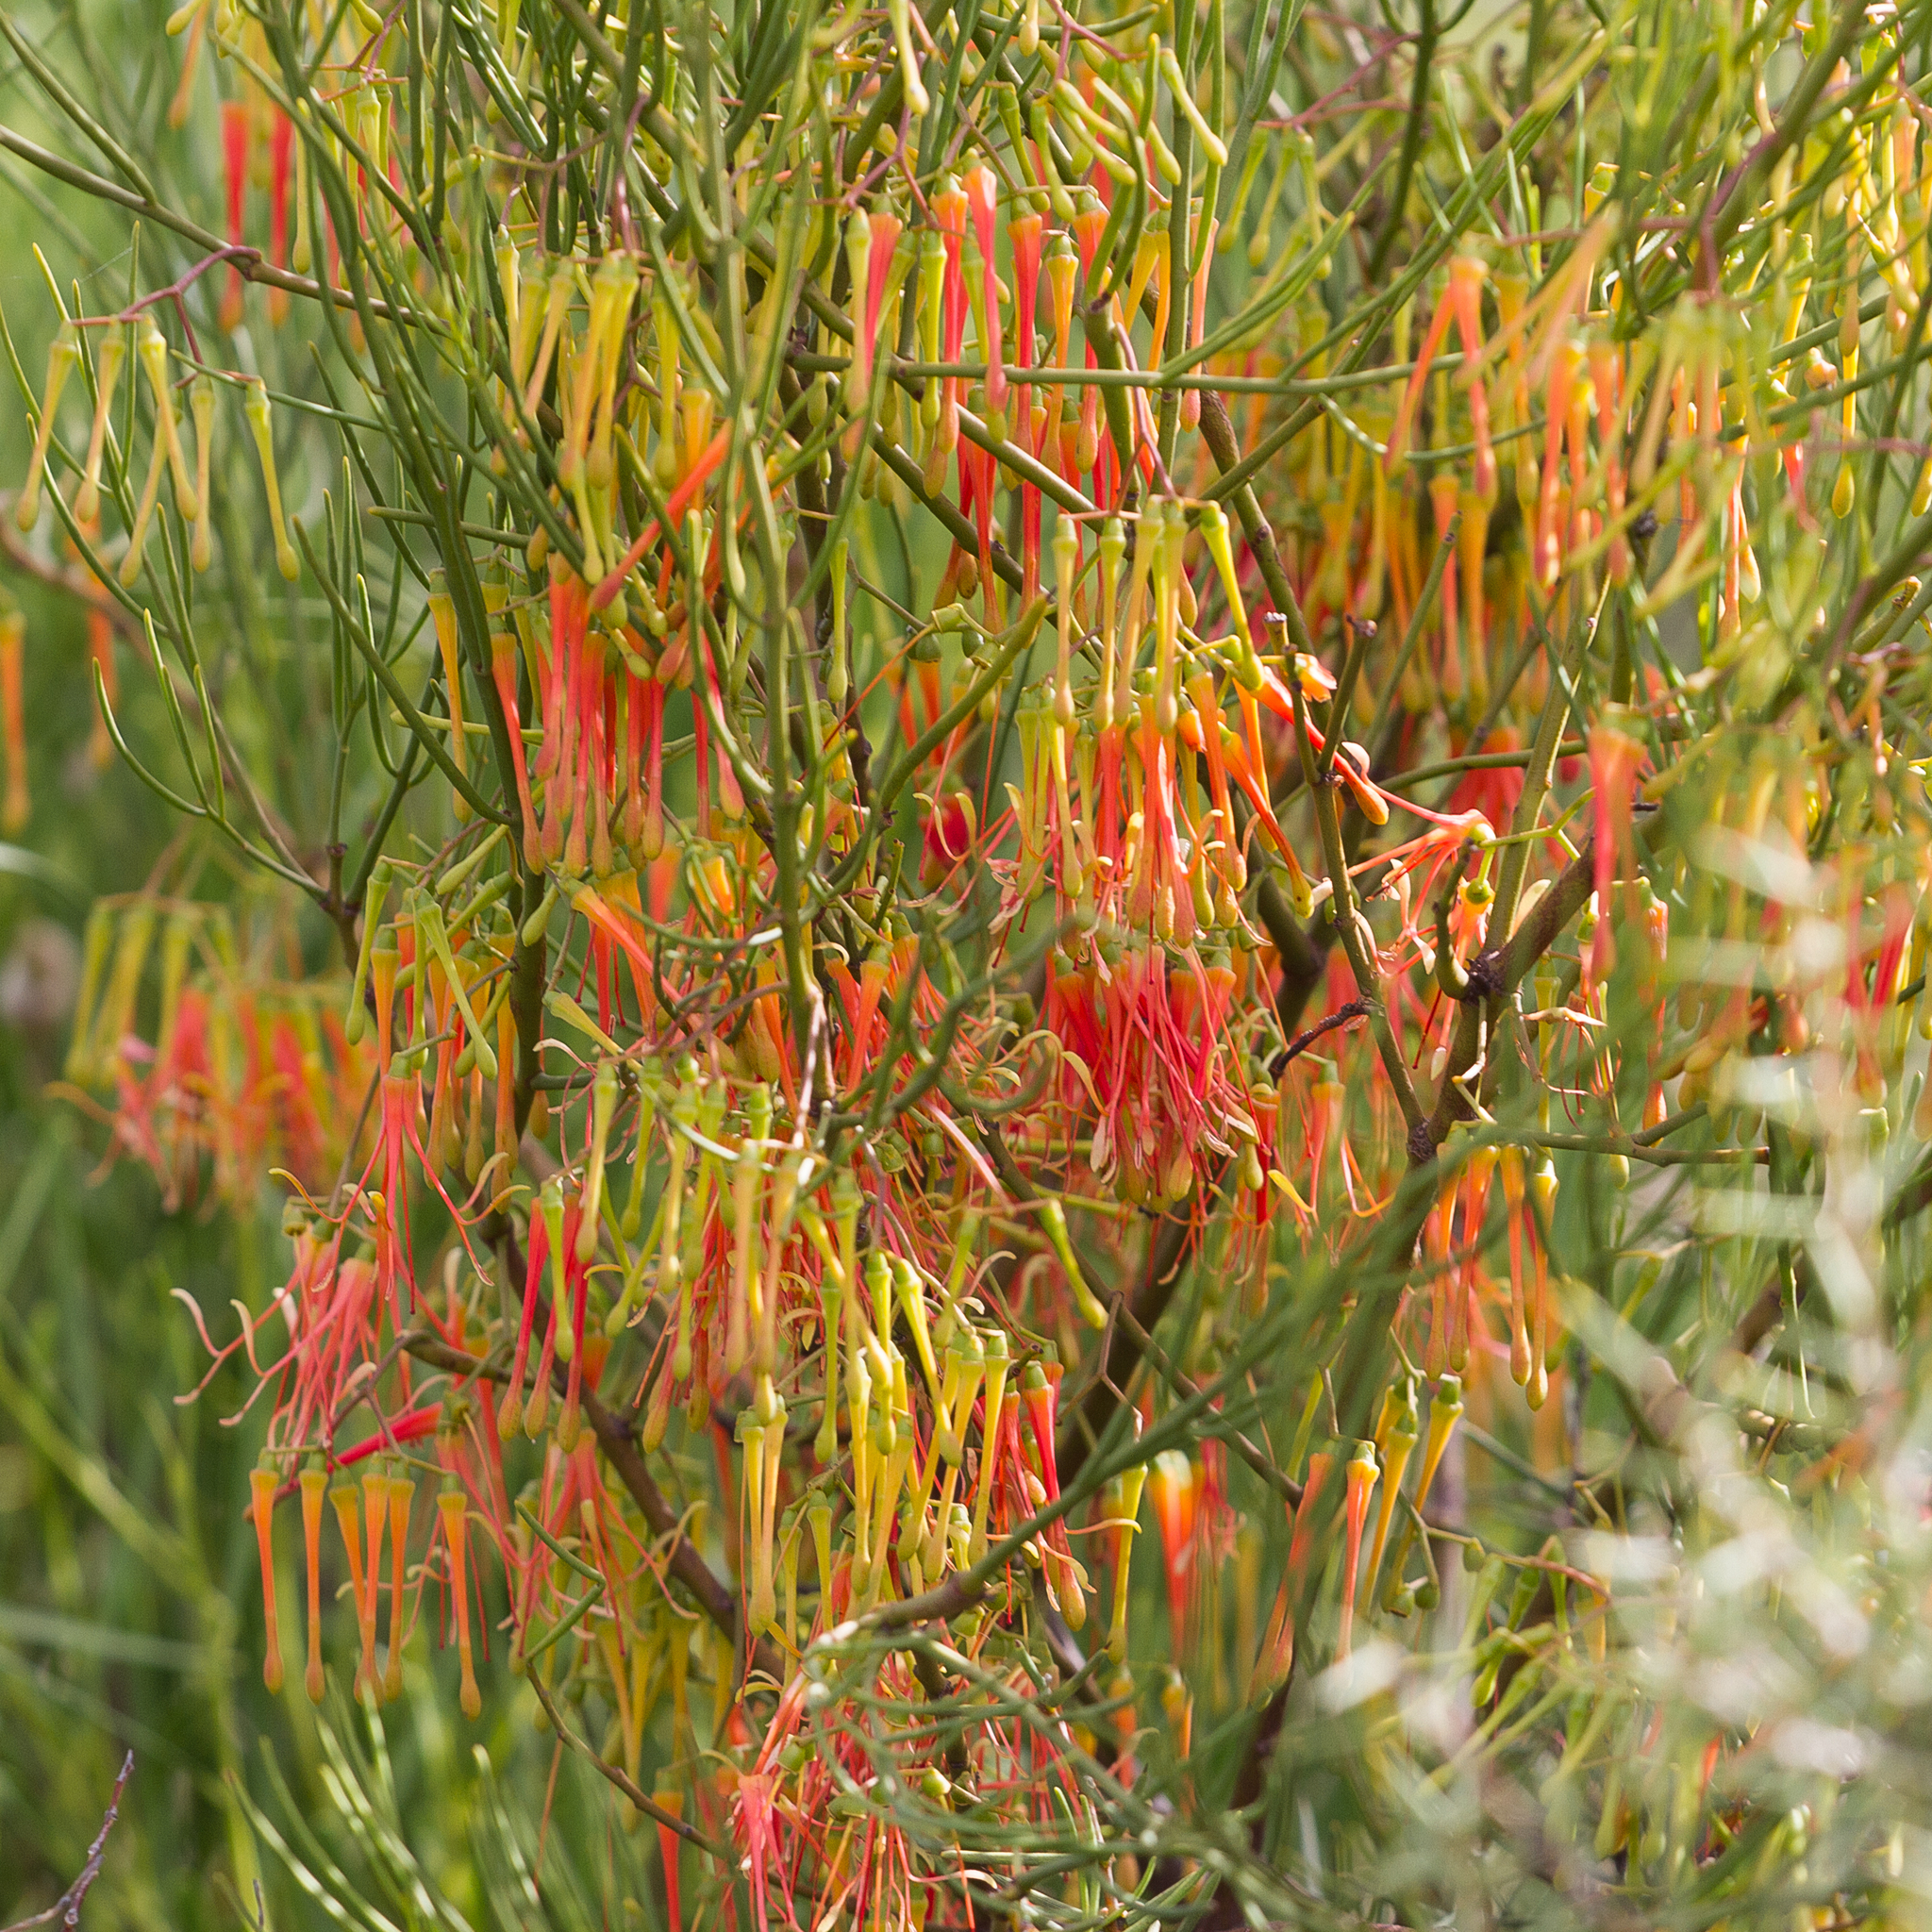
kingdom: Plantae
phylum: Tracheophyta
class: Magnoliopsida
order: Santalales
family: Loranthaceae
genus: Amyema
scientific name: Amyema preissii
